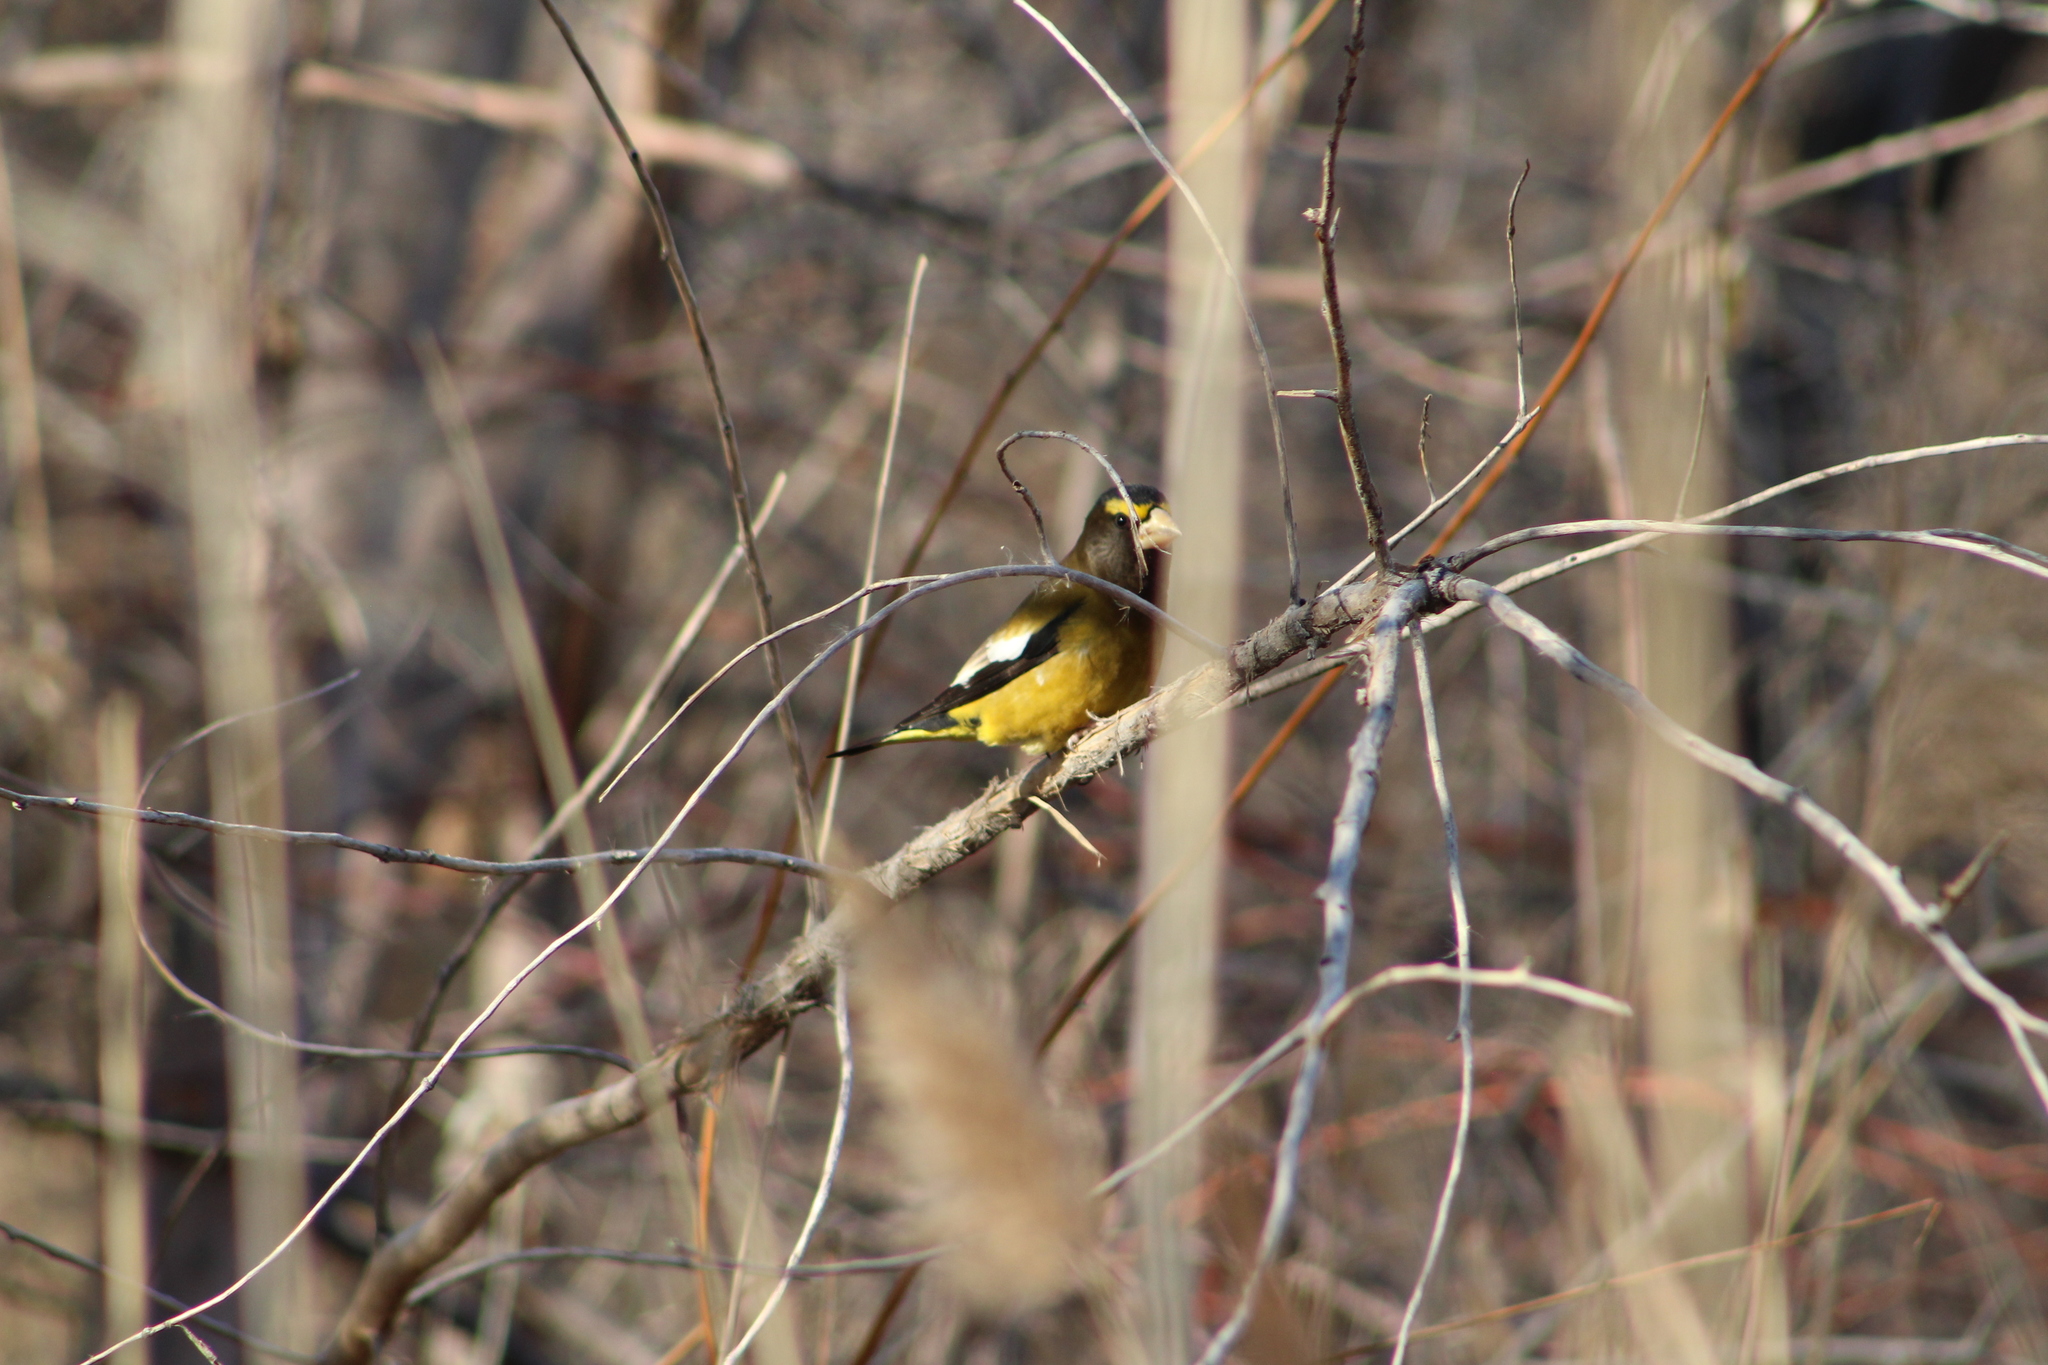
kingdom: Animalia
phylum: Chordata
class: Aves
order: Passeriformes
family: Fringillidae
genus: Hesperiphona
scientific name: Hesperiphona vespertina
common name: Evening grosbeak
